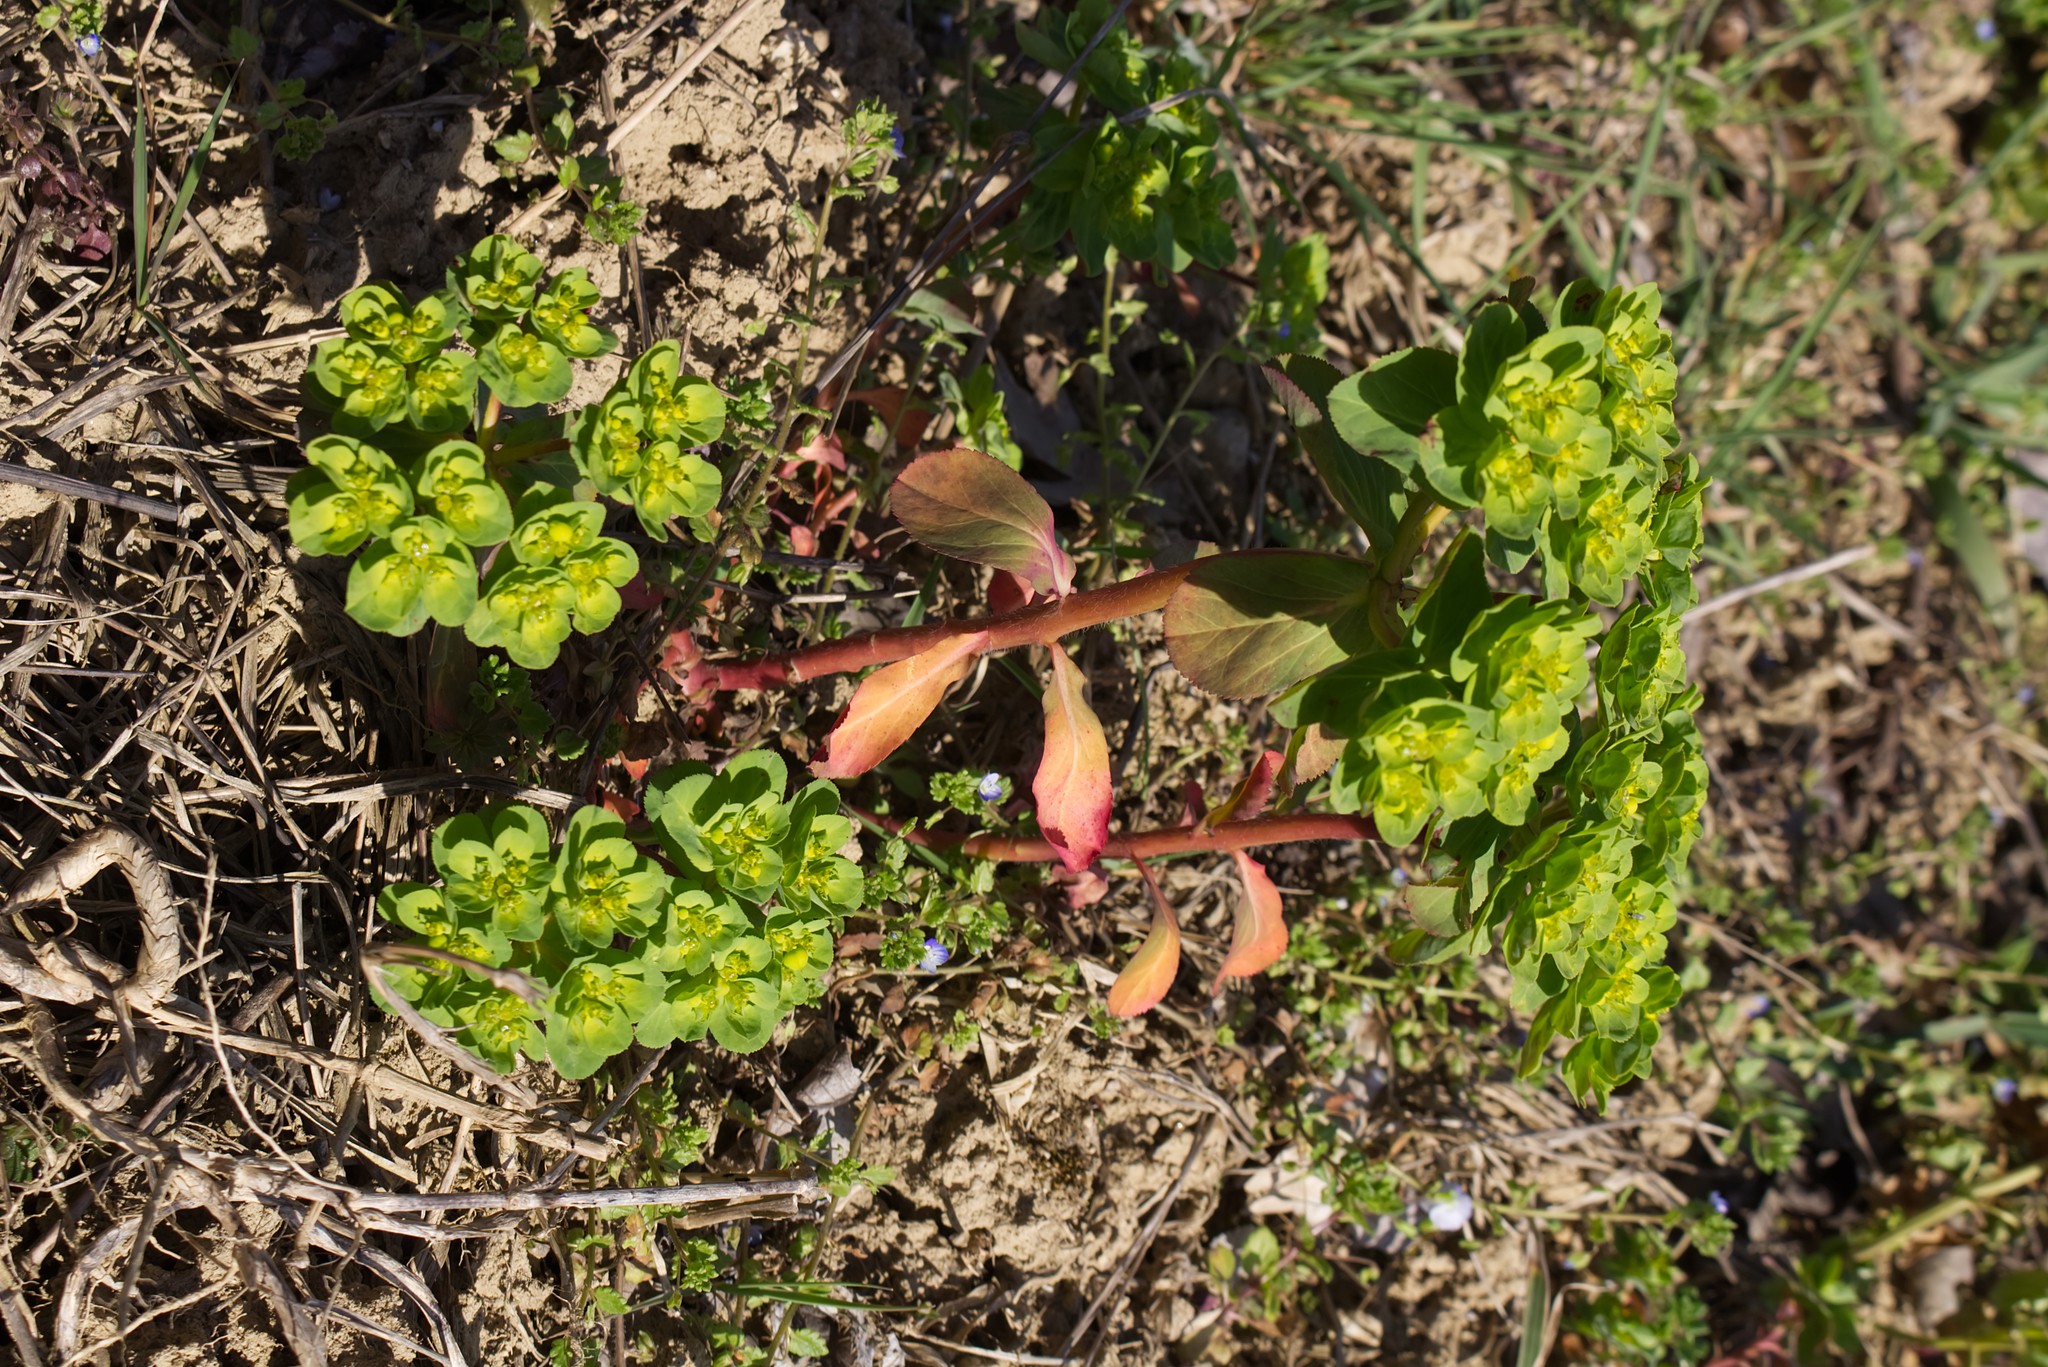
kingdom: Plantae
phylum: Tracheophyta
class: Magnoliopsida
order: Malpighiales
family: Euphorbiaceae
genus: Euphorbia
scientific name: Euphorbia helioscopia
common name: Sun spurge
